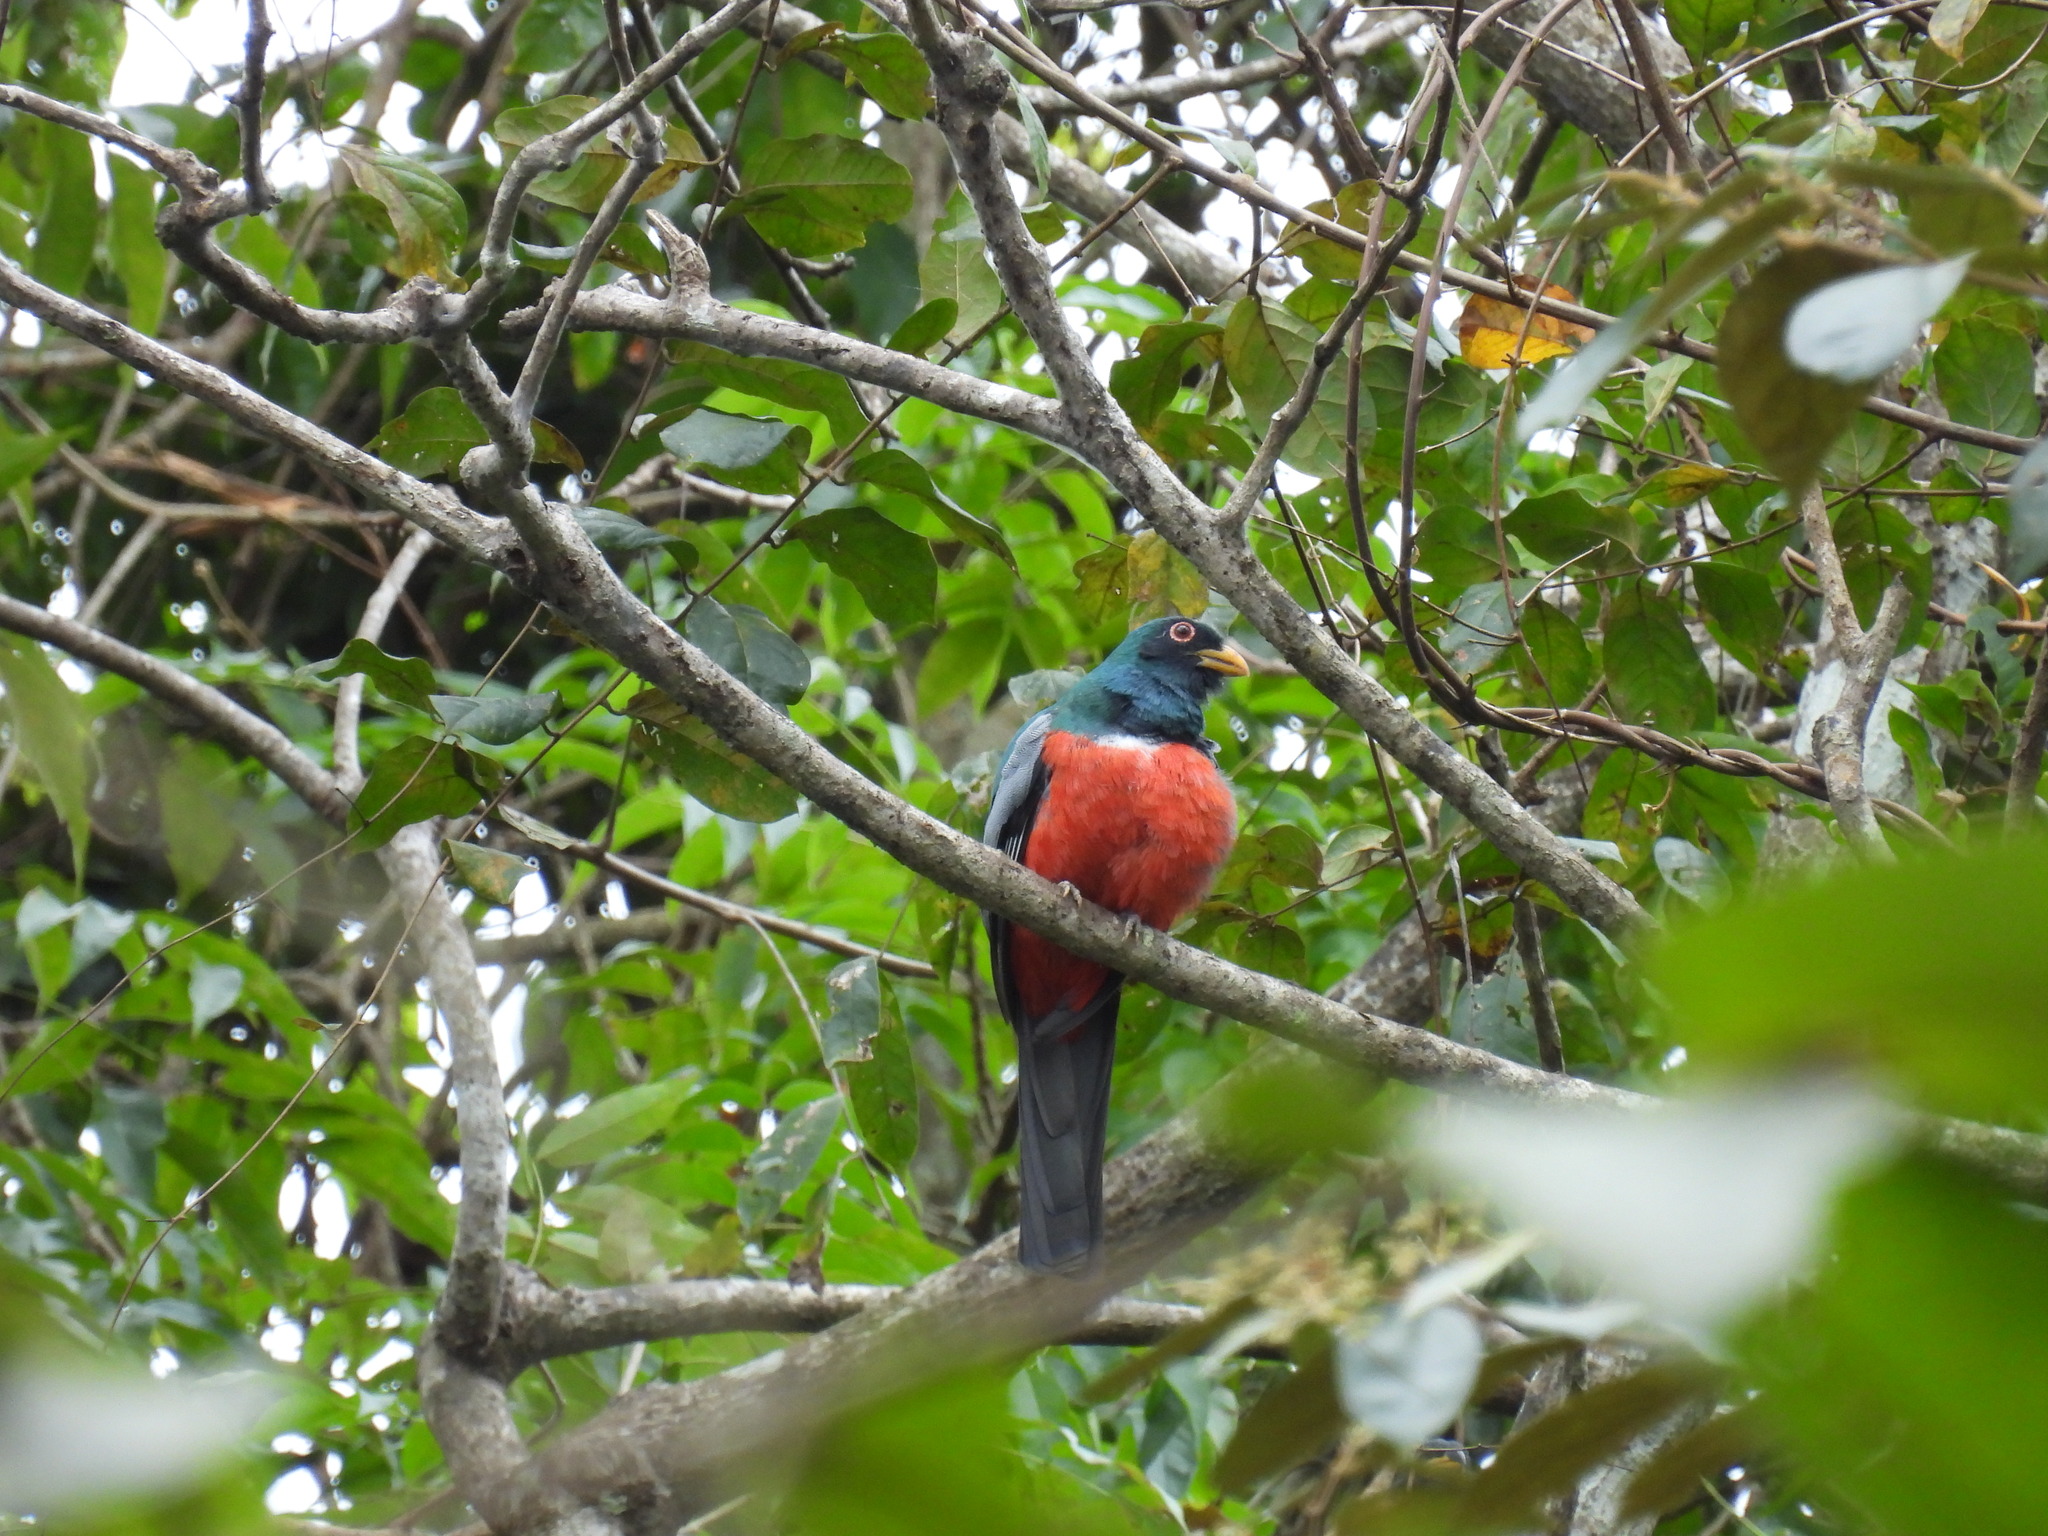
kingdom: Animalia
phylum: Chordata
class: Aves
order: Trogoniformes
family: Trogonidae
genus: Trogon
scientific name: Trogon massena
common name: Slaty-tailed trogon
